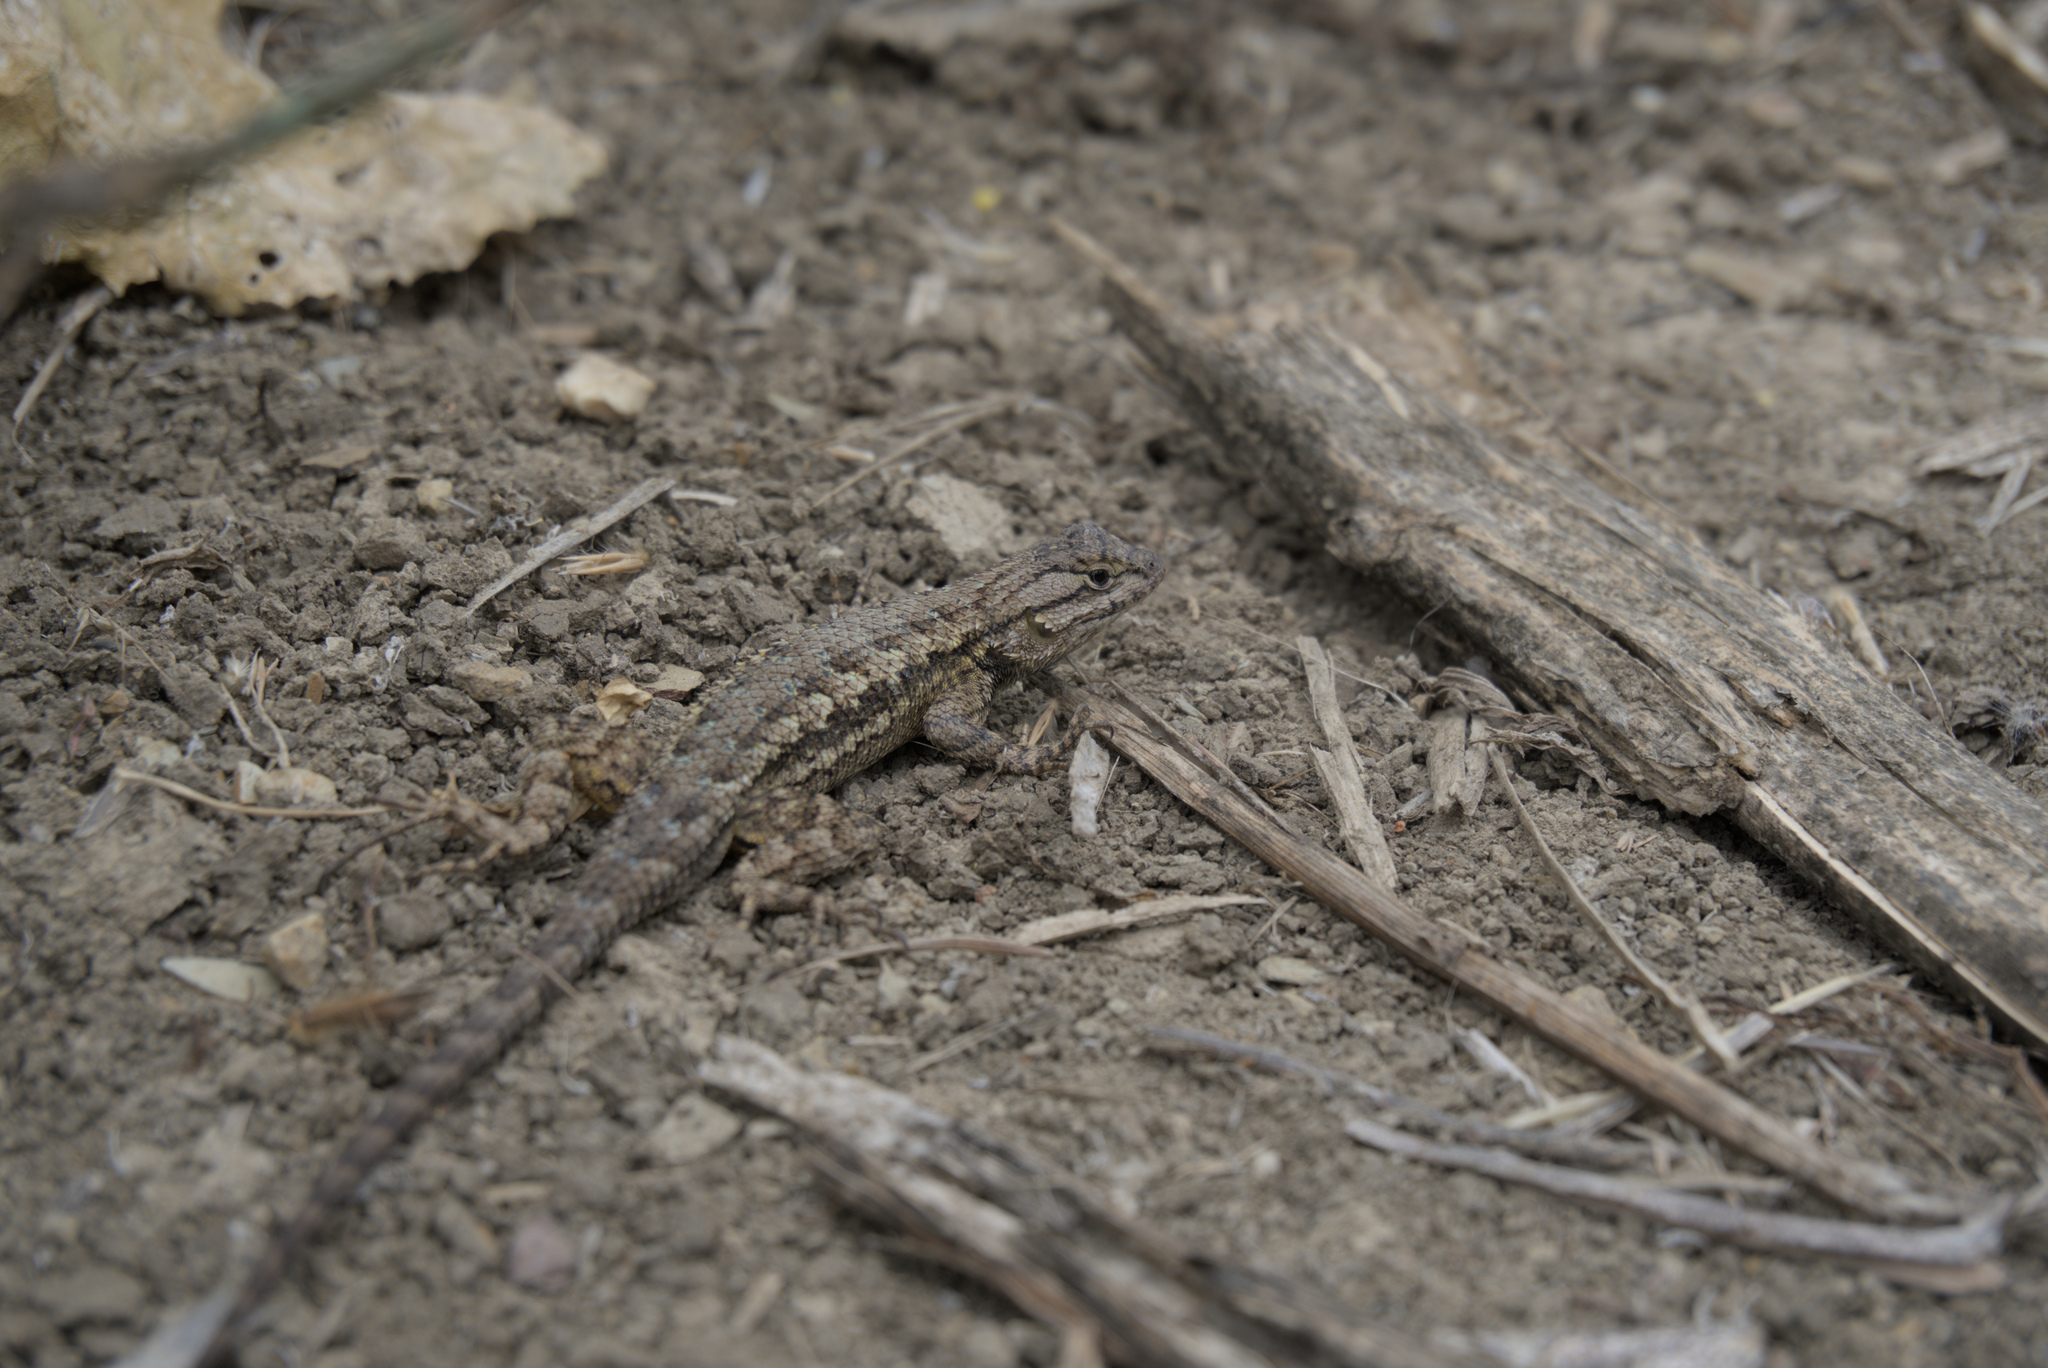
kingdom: Animalia
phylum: Chordata
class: Squamata
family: Phrynosomatidae
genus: Sceloporus
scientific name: Sceloporus occidentalis
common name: Western fence lizard
